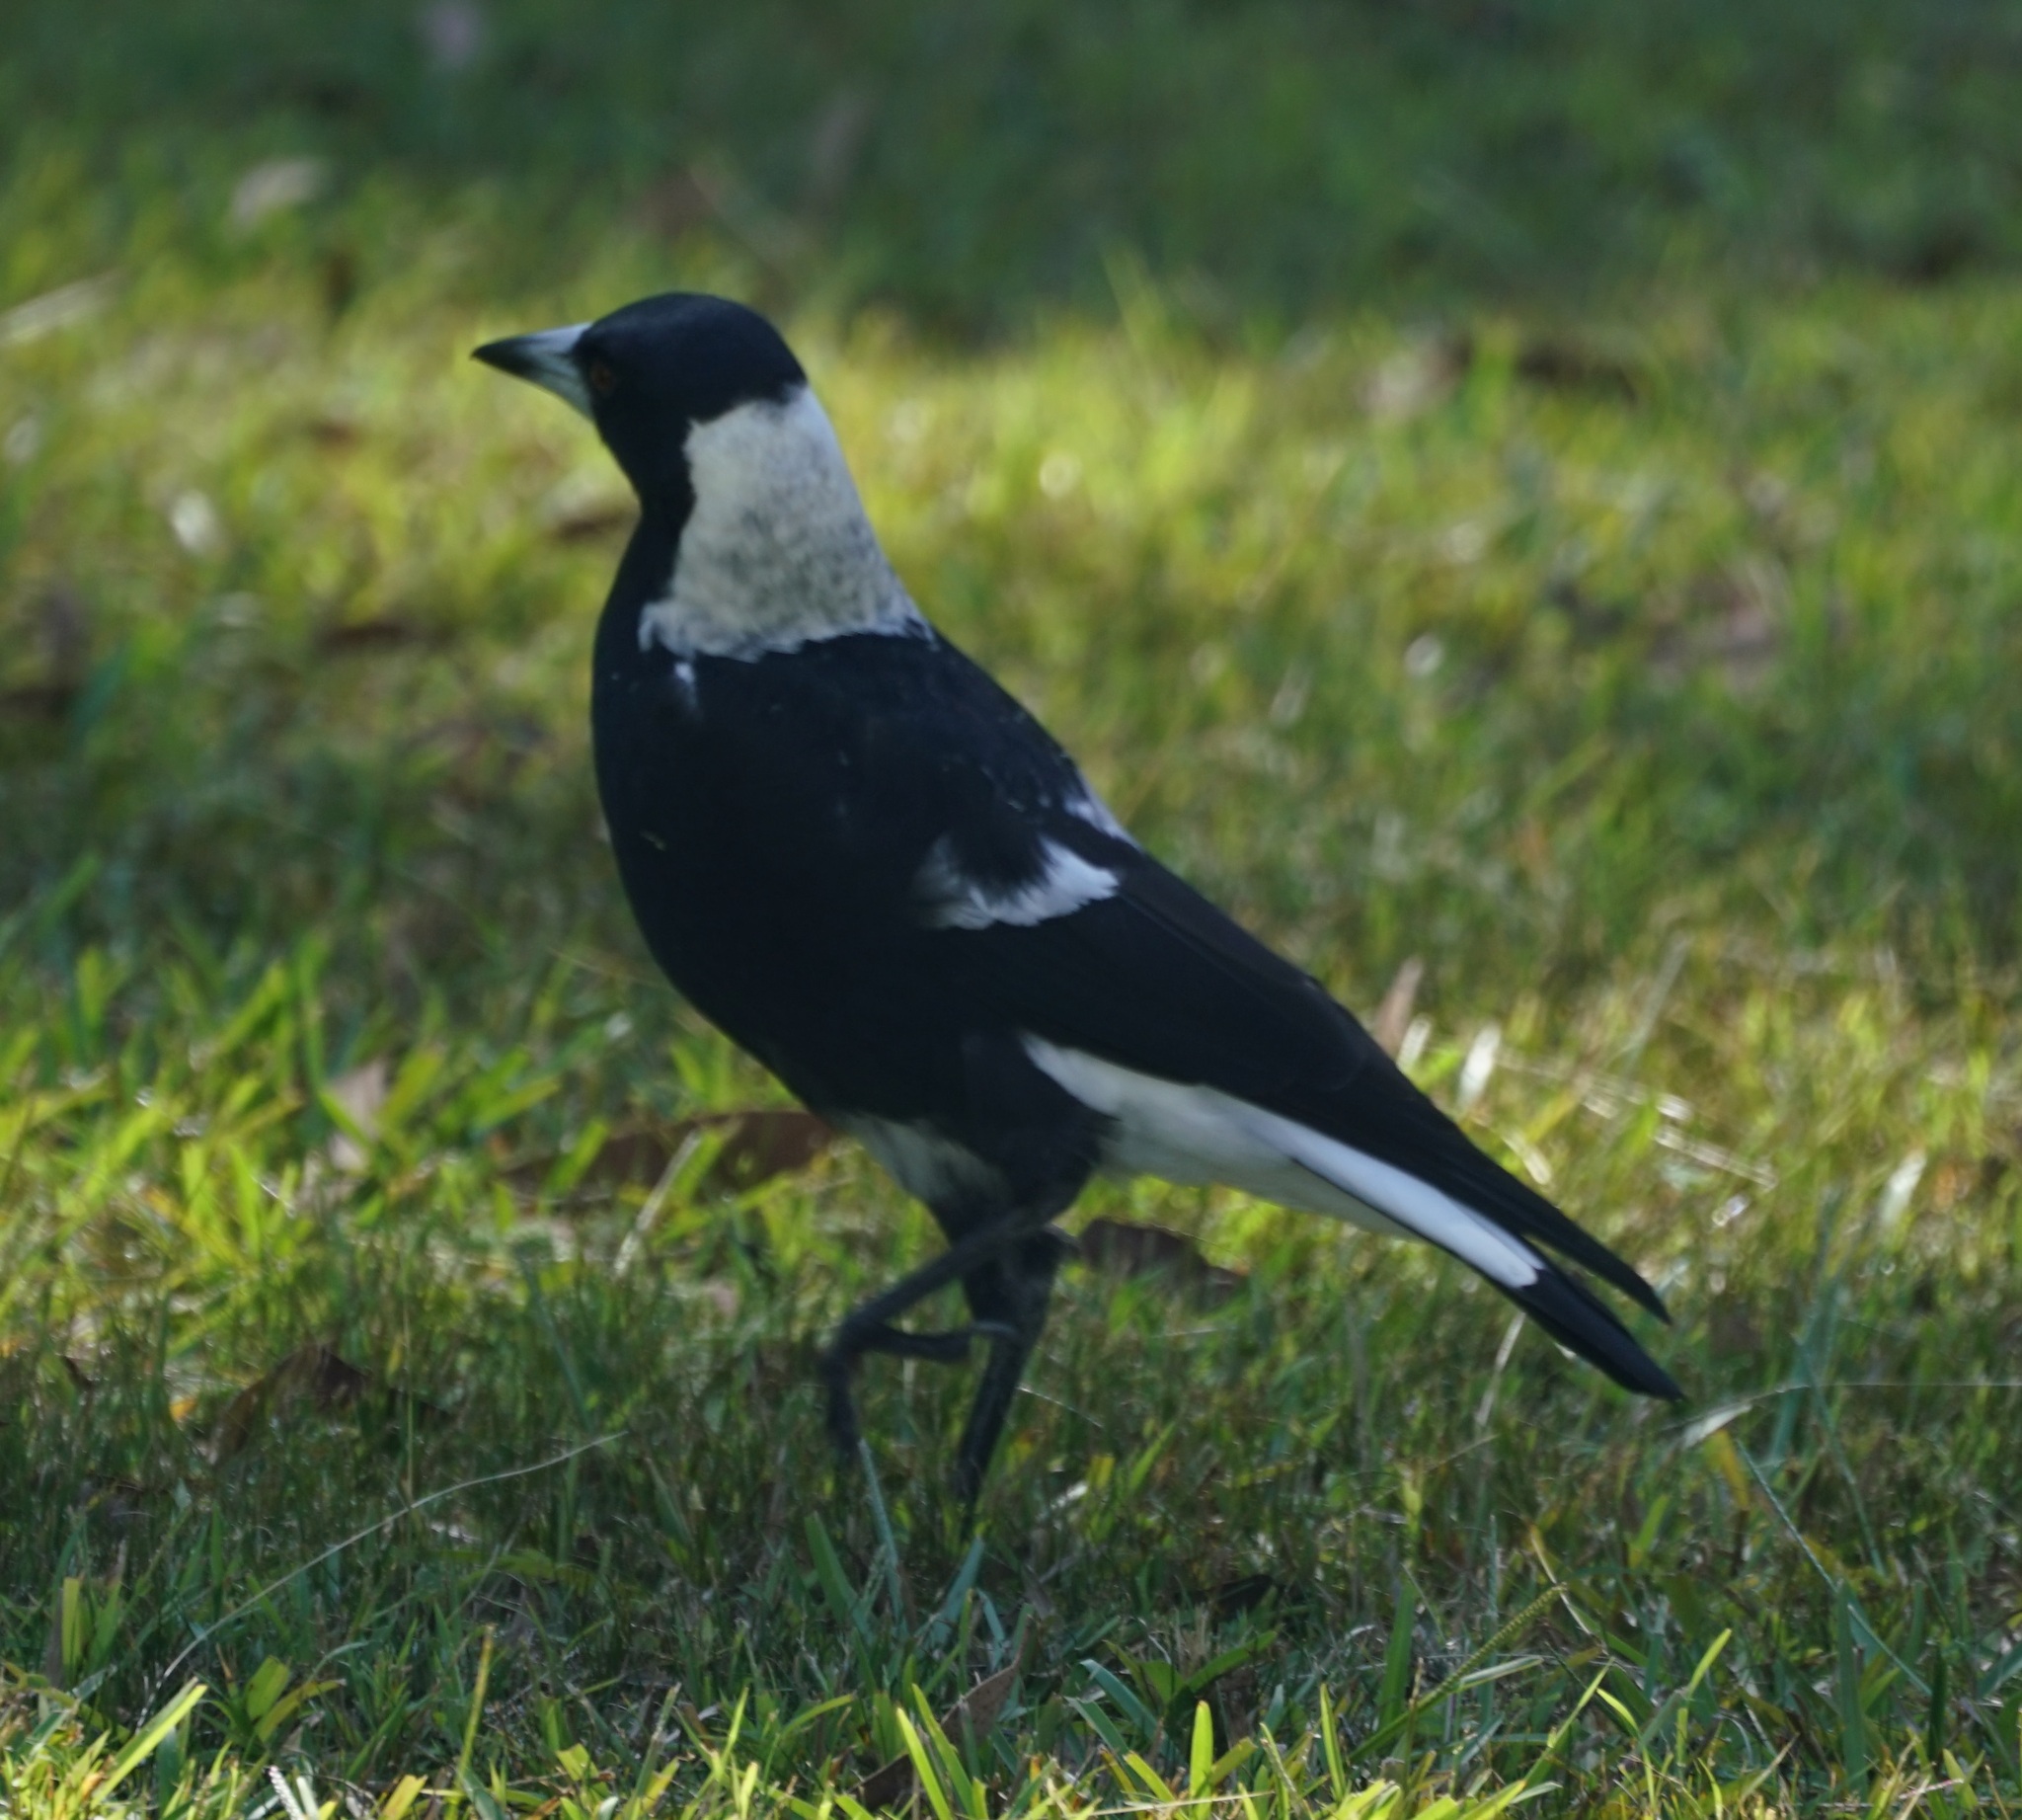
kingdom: Animalia
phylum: Chordata
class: Aves
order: Passeriformes
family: Cracticidae
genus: Gymnorhina
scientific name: Gymnorhina tibicen
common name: Australian magpie
